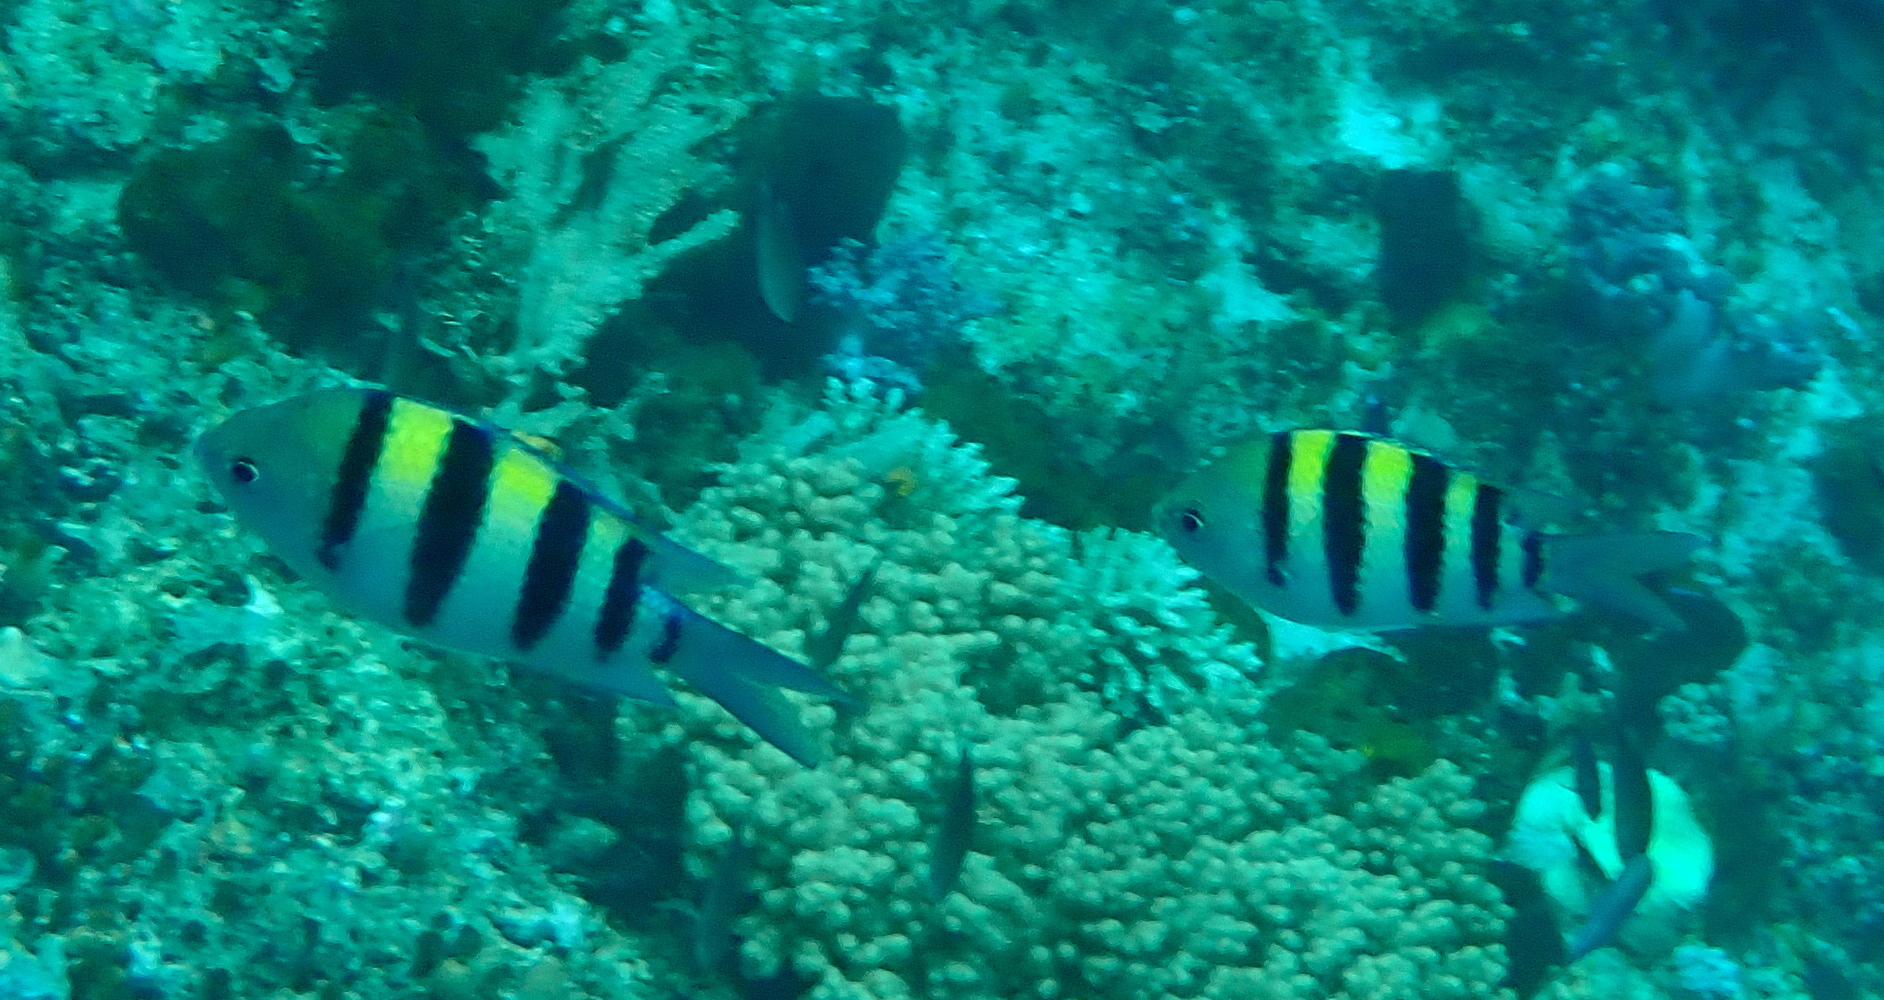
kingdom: Animalia
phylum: Chordata
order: Perciformes
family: Pomacentridae
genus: Abudefduf
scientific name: Abudefduf vaigiensis
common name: Indo-pacific sergeant
